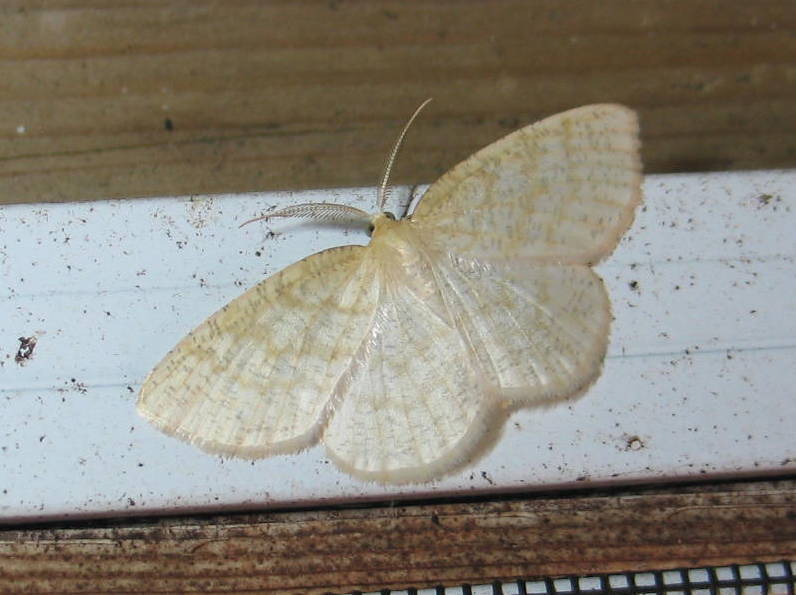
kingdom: Animalia
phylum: Arthropoda
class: Insecta
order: Lepidoptera
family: Geometridae
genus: Cabera
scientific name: Cabera erythemaria
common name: Yellow-dusted cream moth
